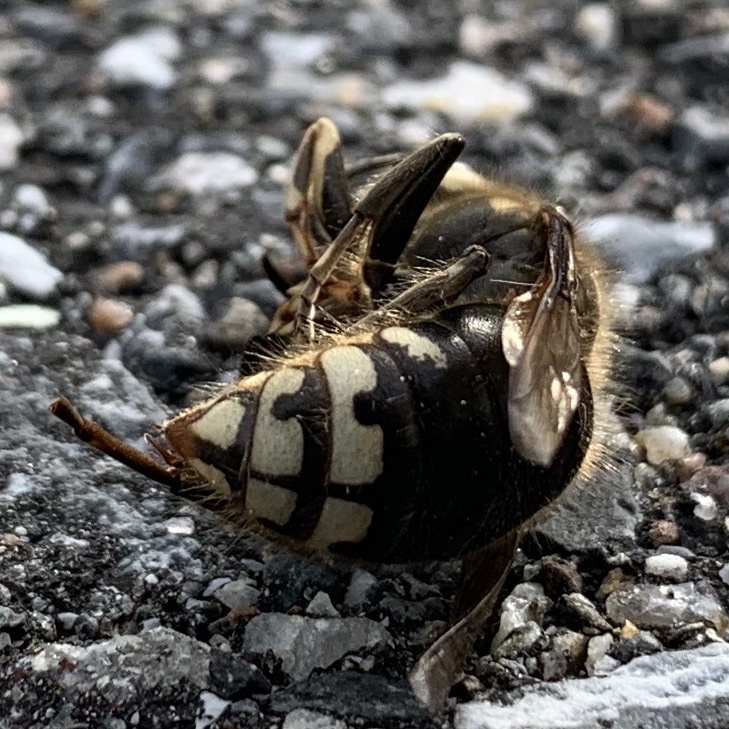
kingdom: Animalia
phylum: Arthropoda
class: Insecta
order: Hymenoptera
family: Vespidae
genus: Dolichovespula
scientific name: Dolichovespula maculata
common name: Bald-faced hornet
